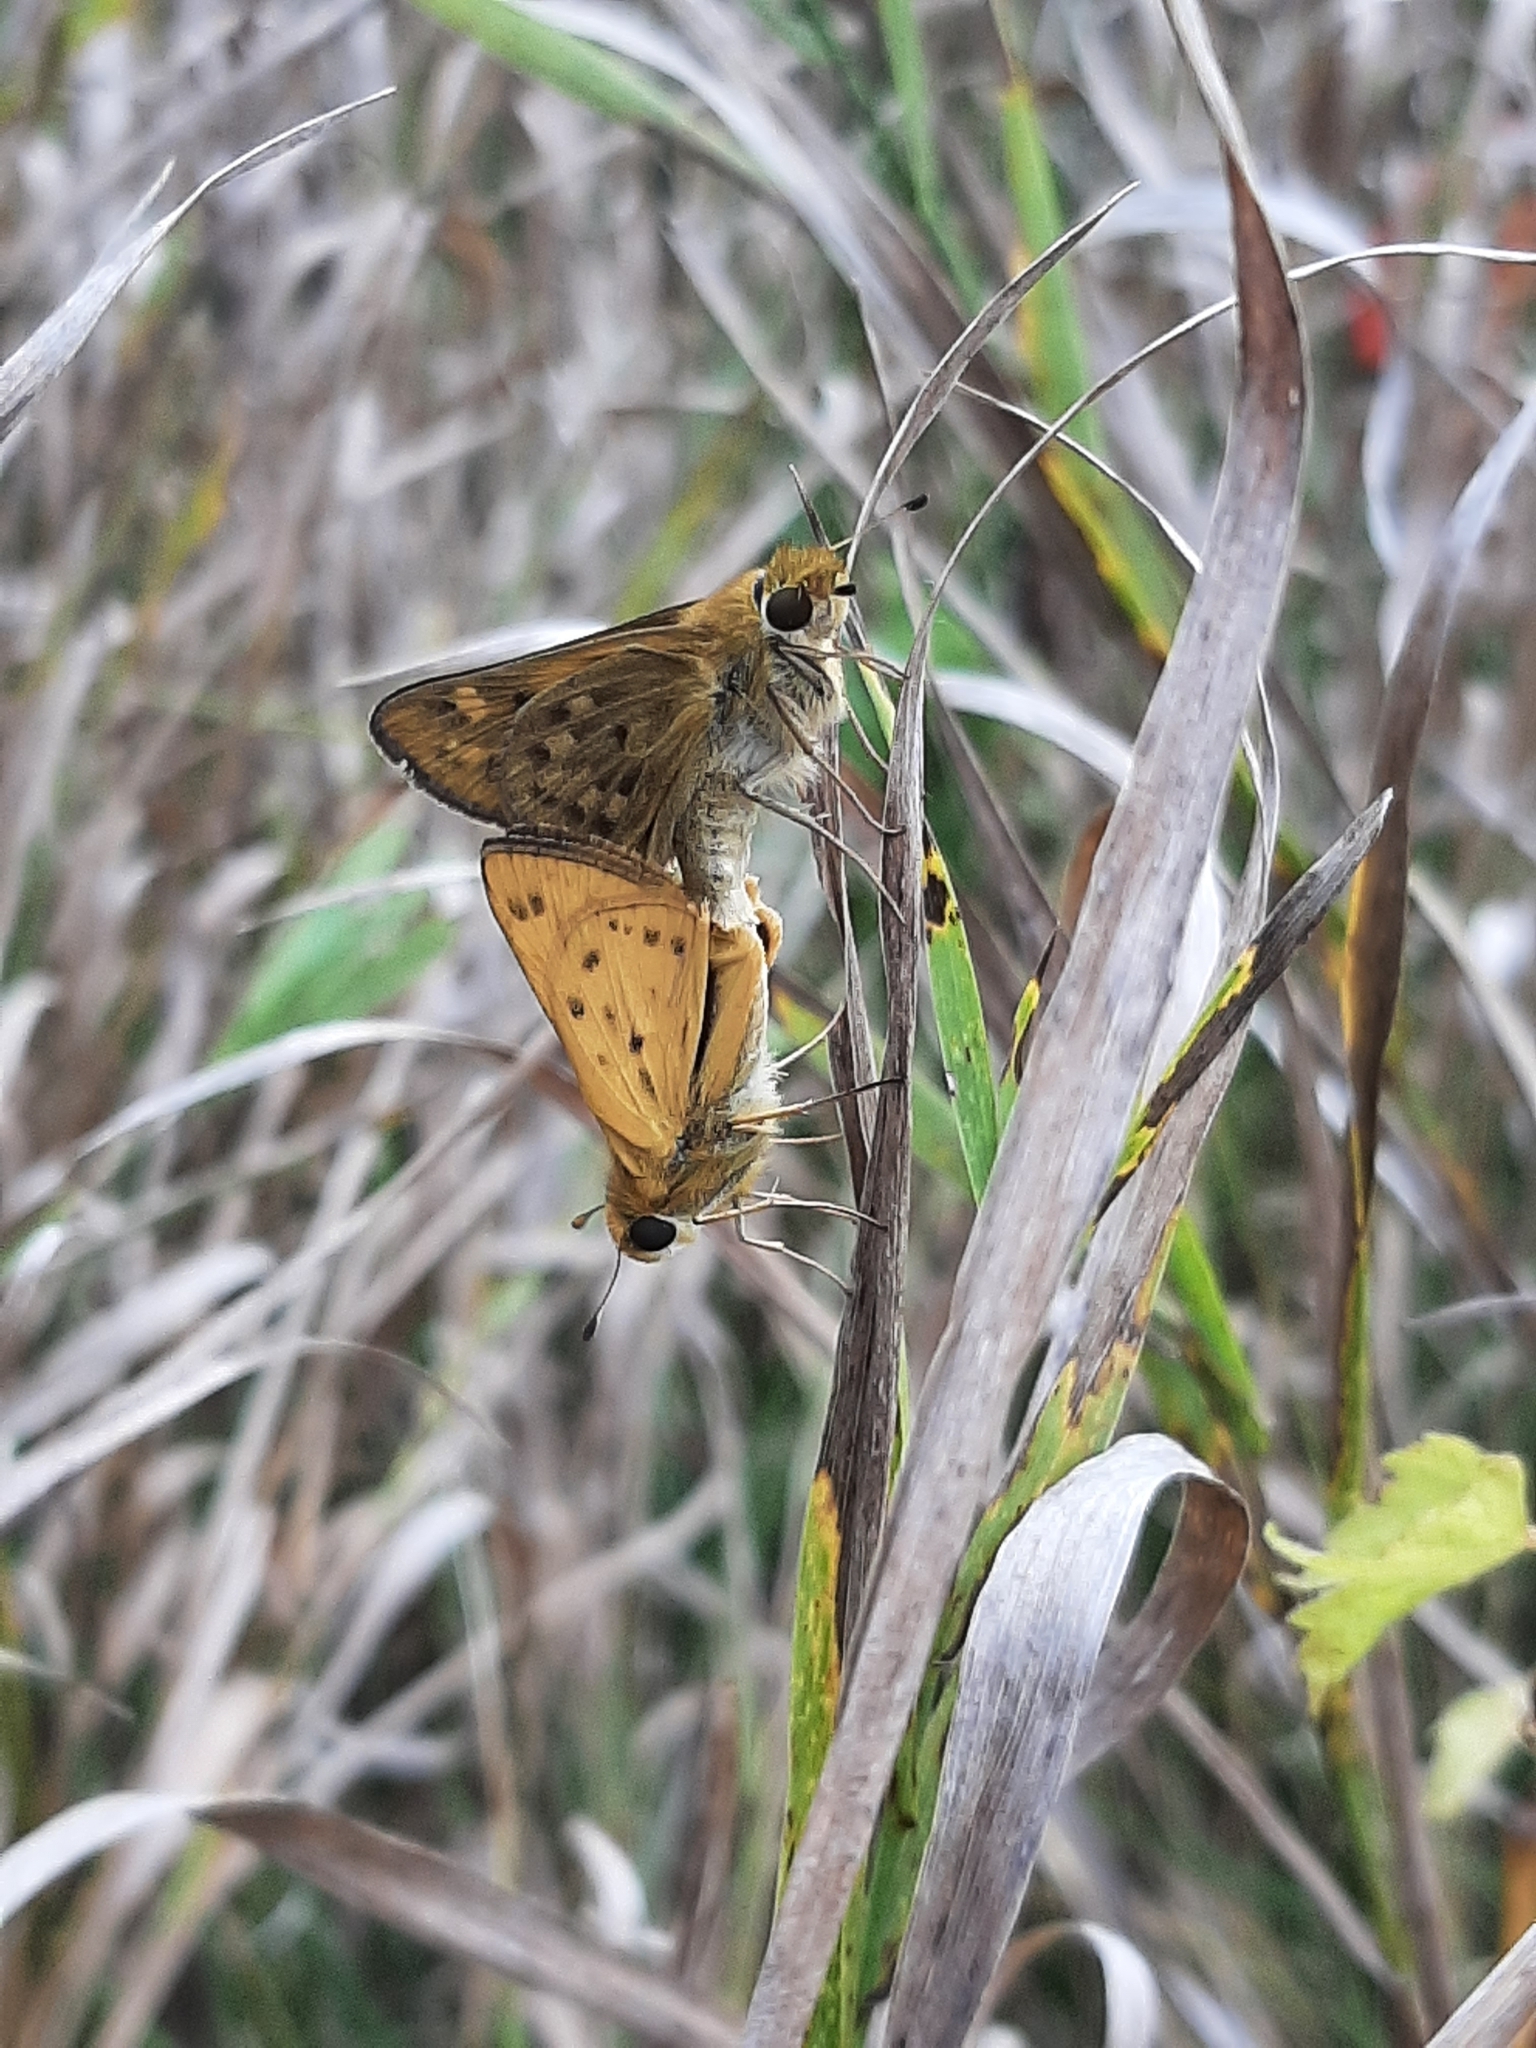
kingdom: Animalia
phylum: Arthropoda
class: Insecta
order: Lepidoptera
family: Hesperiidae
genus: Hylephila
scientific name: Hylephila phyleus
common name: Fiery skipper
